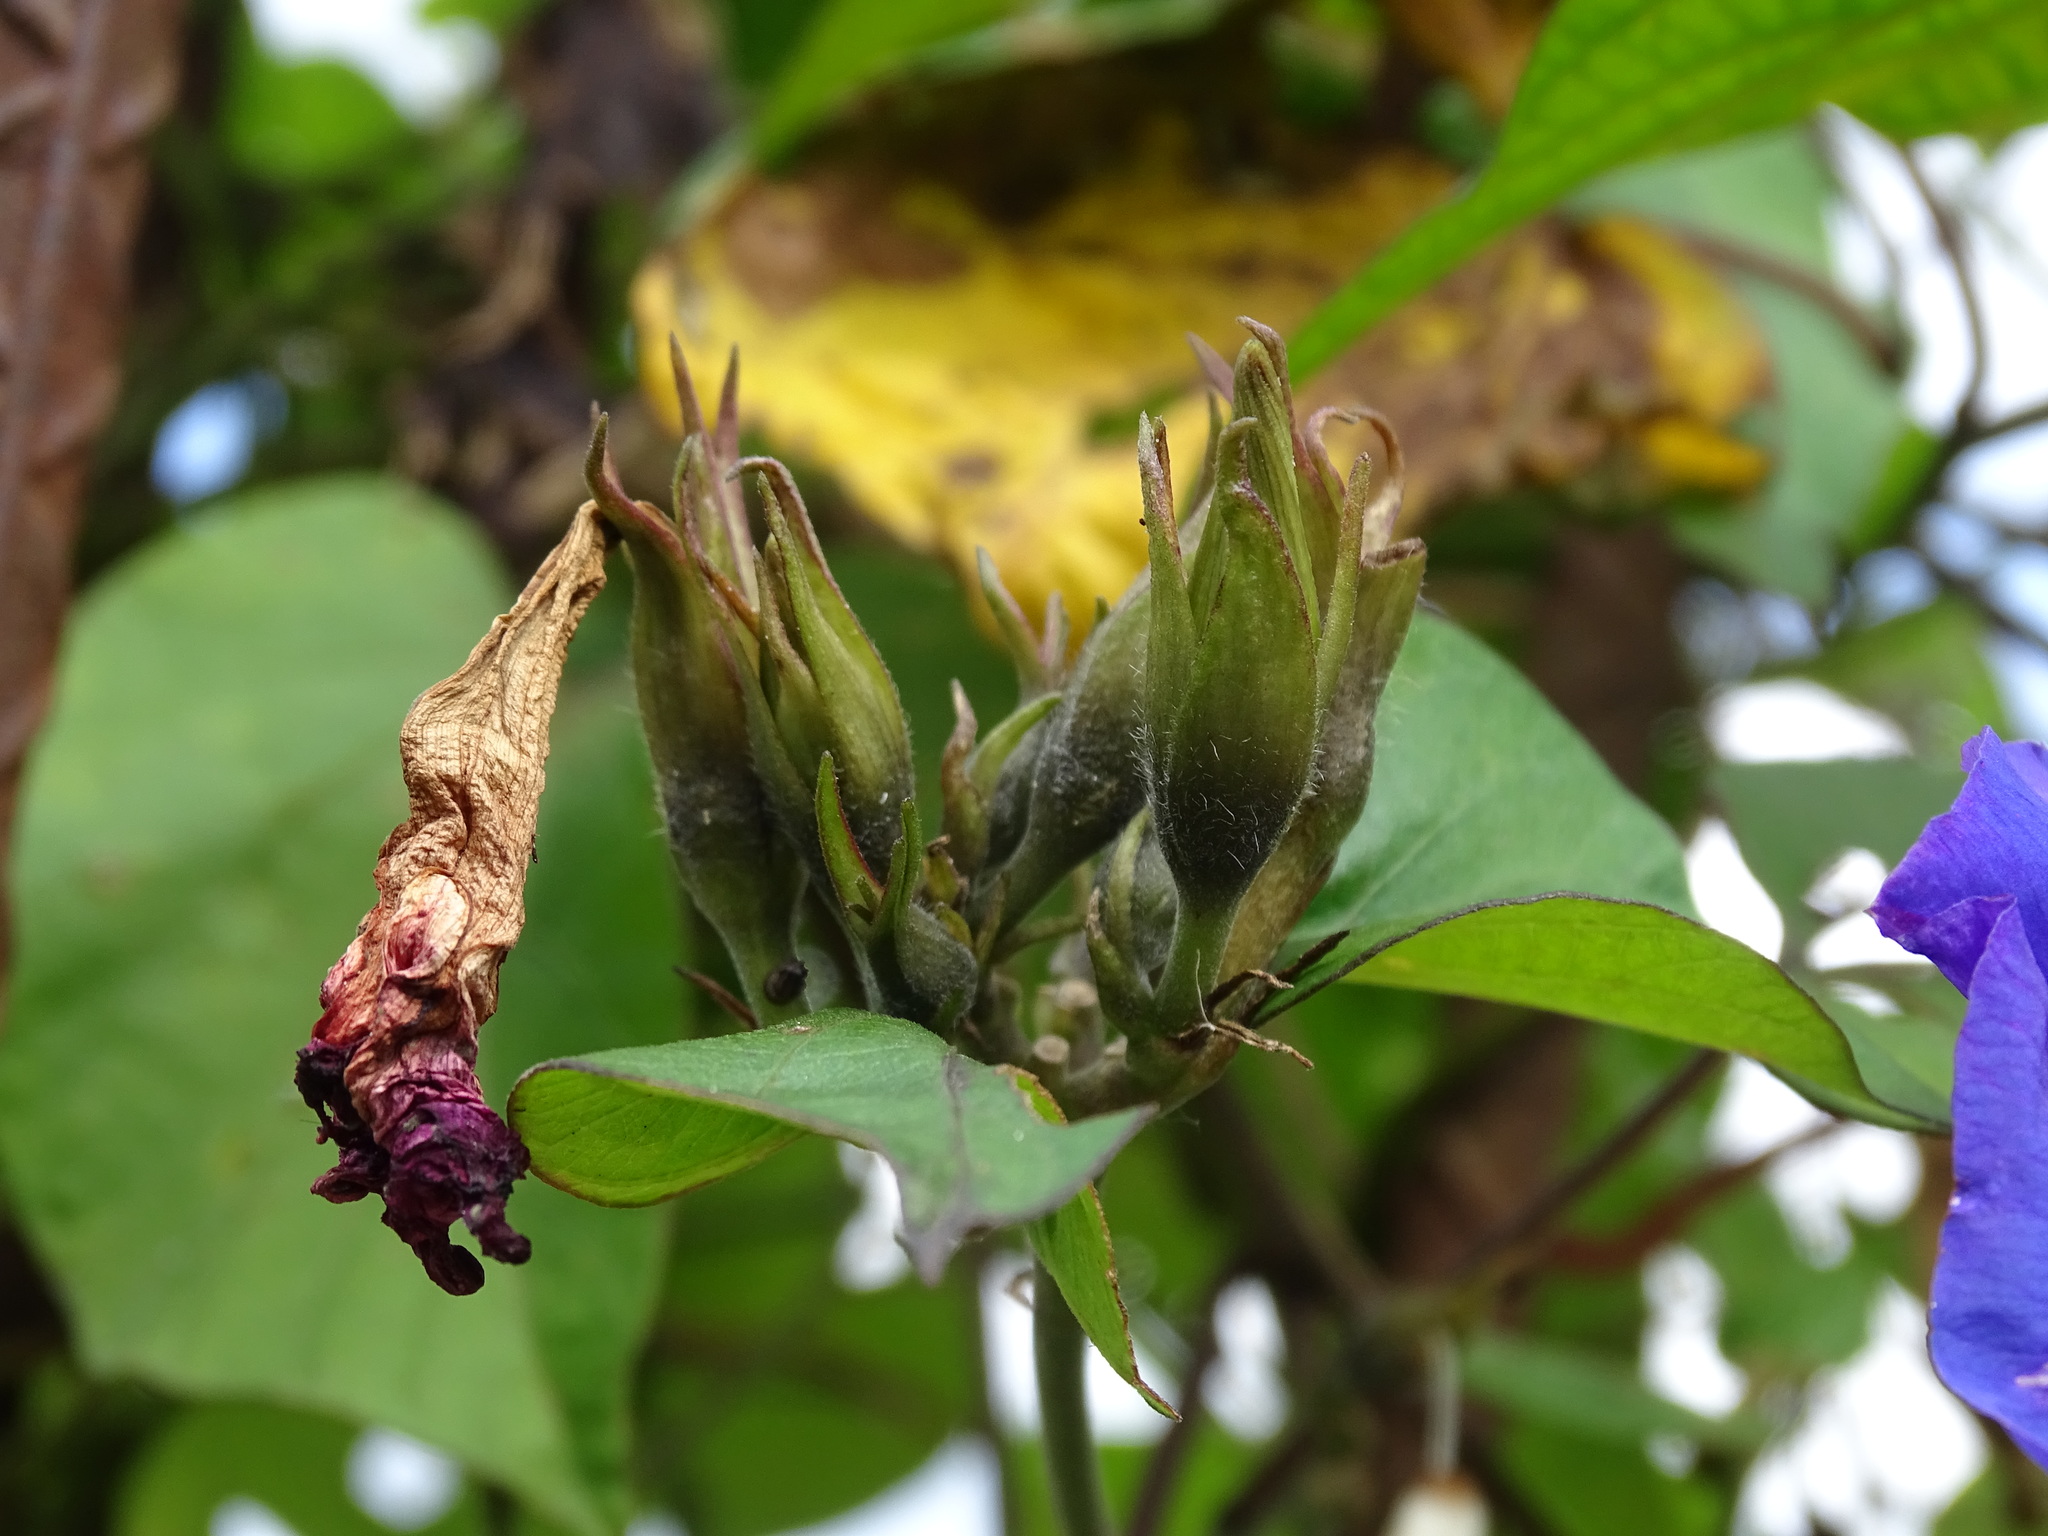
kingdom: Plantae
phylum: Tracheophyta
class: Magnoliopsida
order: Solanales
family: Convolvulaceae
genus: Ipomoea
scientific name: Ipomoea indica
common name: Blue dawnflower
